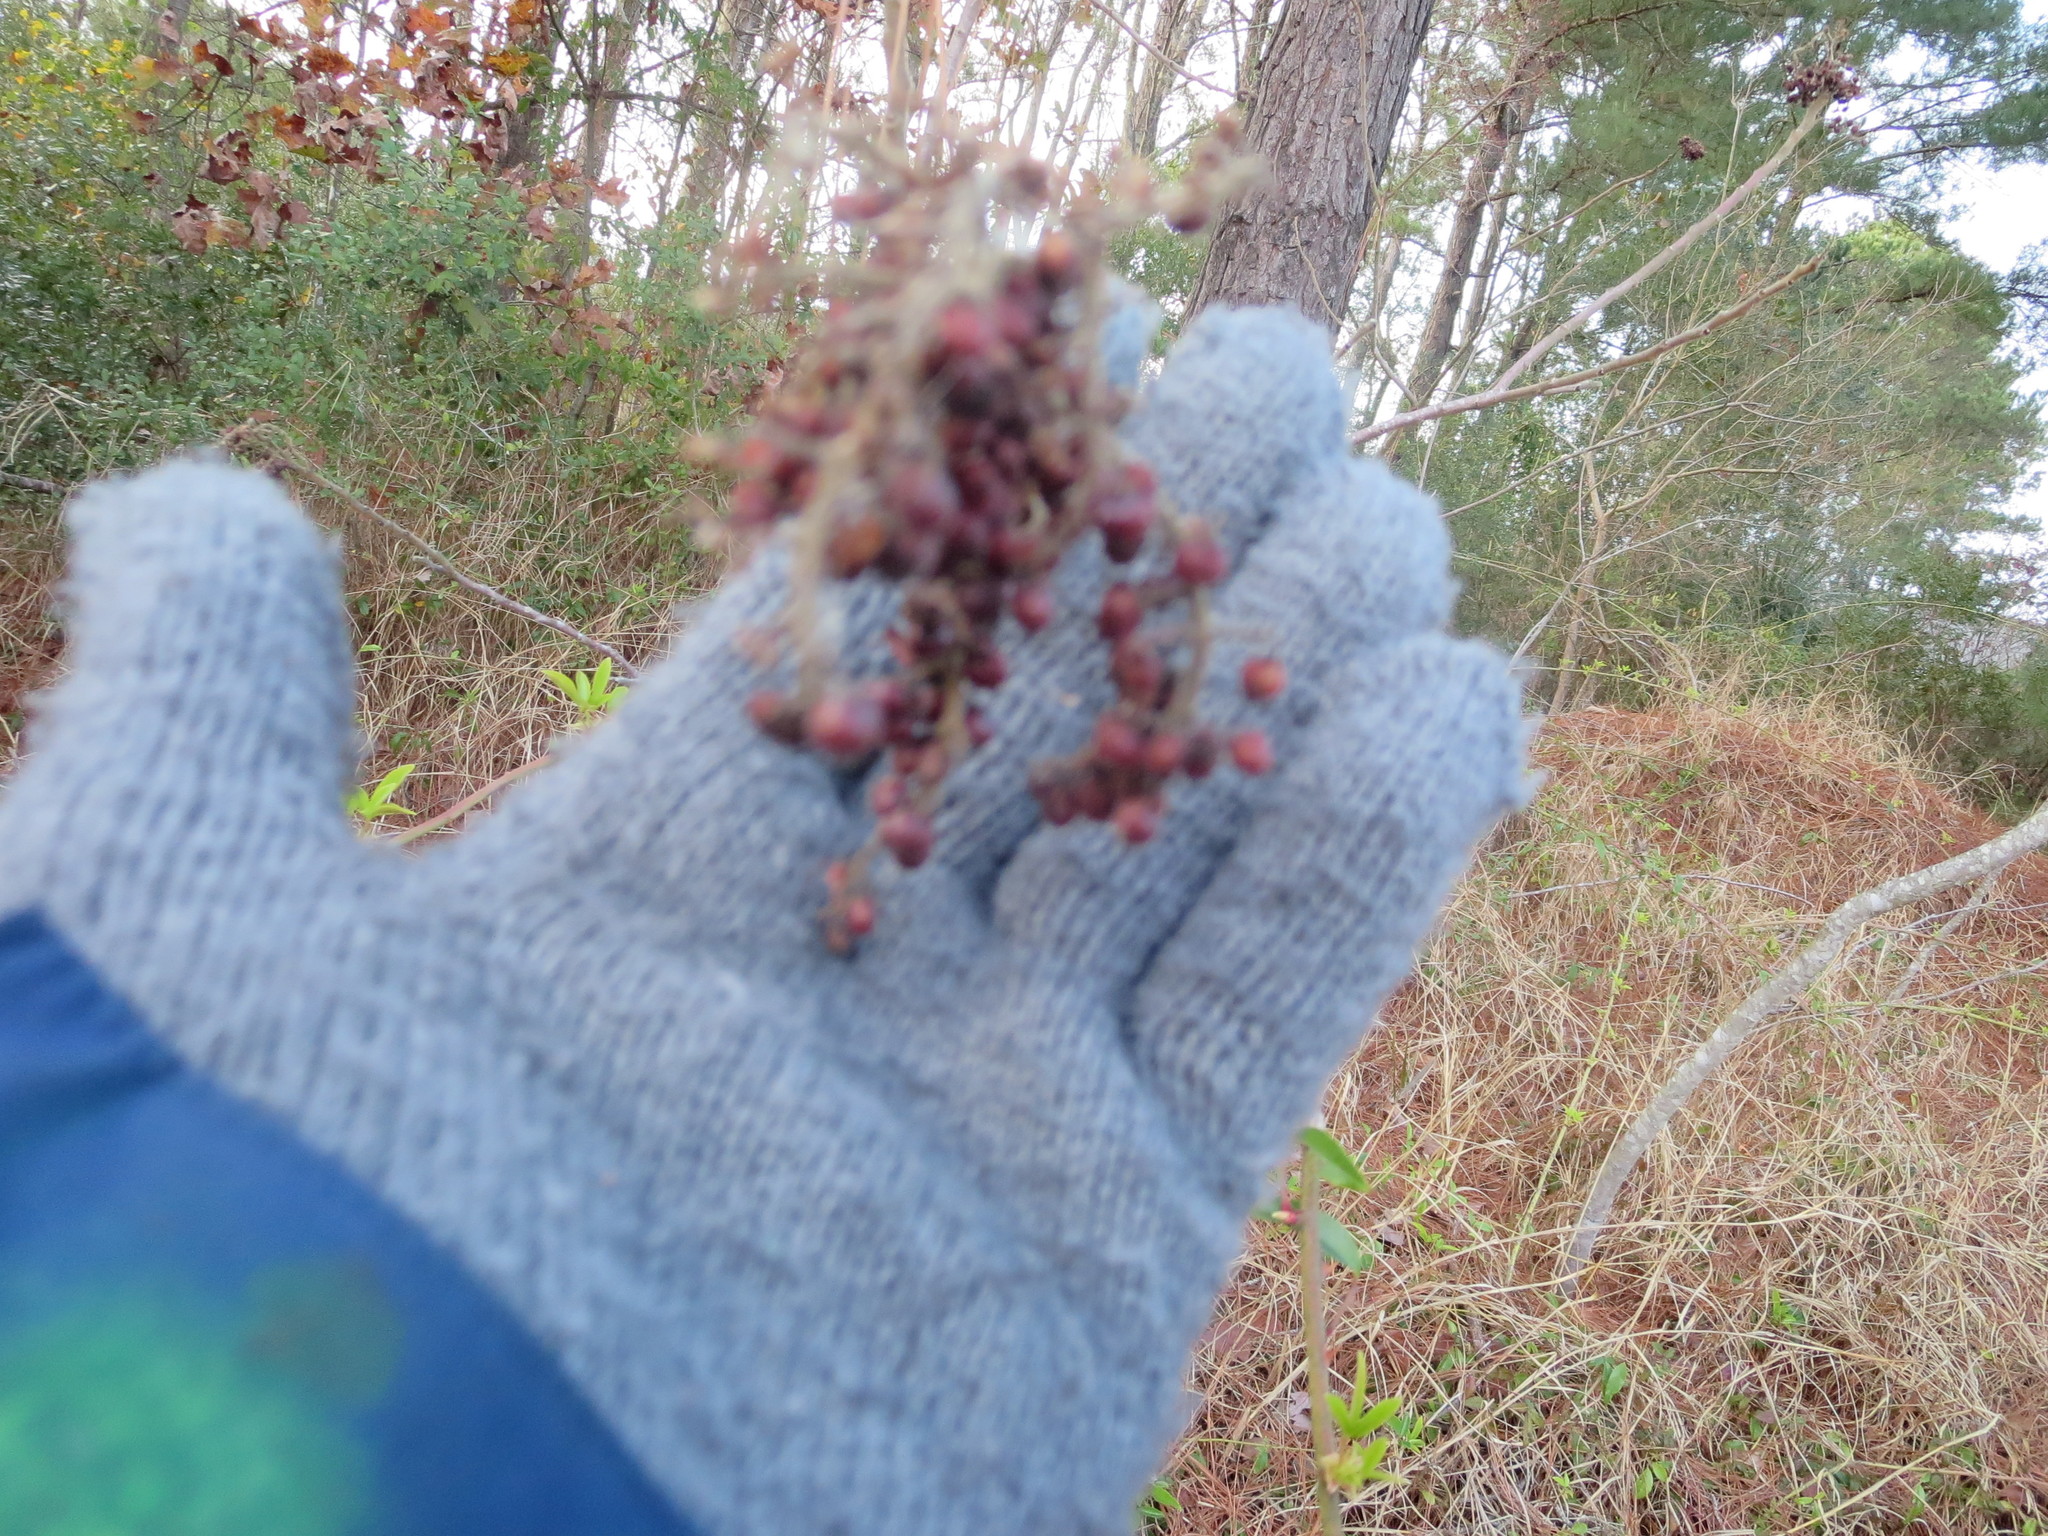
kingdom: Plantae
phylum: Tracheophyta
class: Magnoliopsida
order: Sapindales
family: Anacardiaceae
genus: Rhus
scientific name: Rhus copallina
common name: Shining sumac
